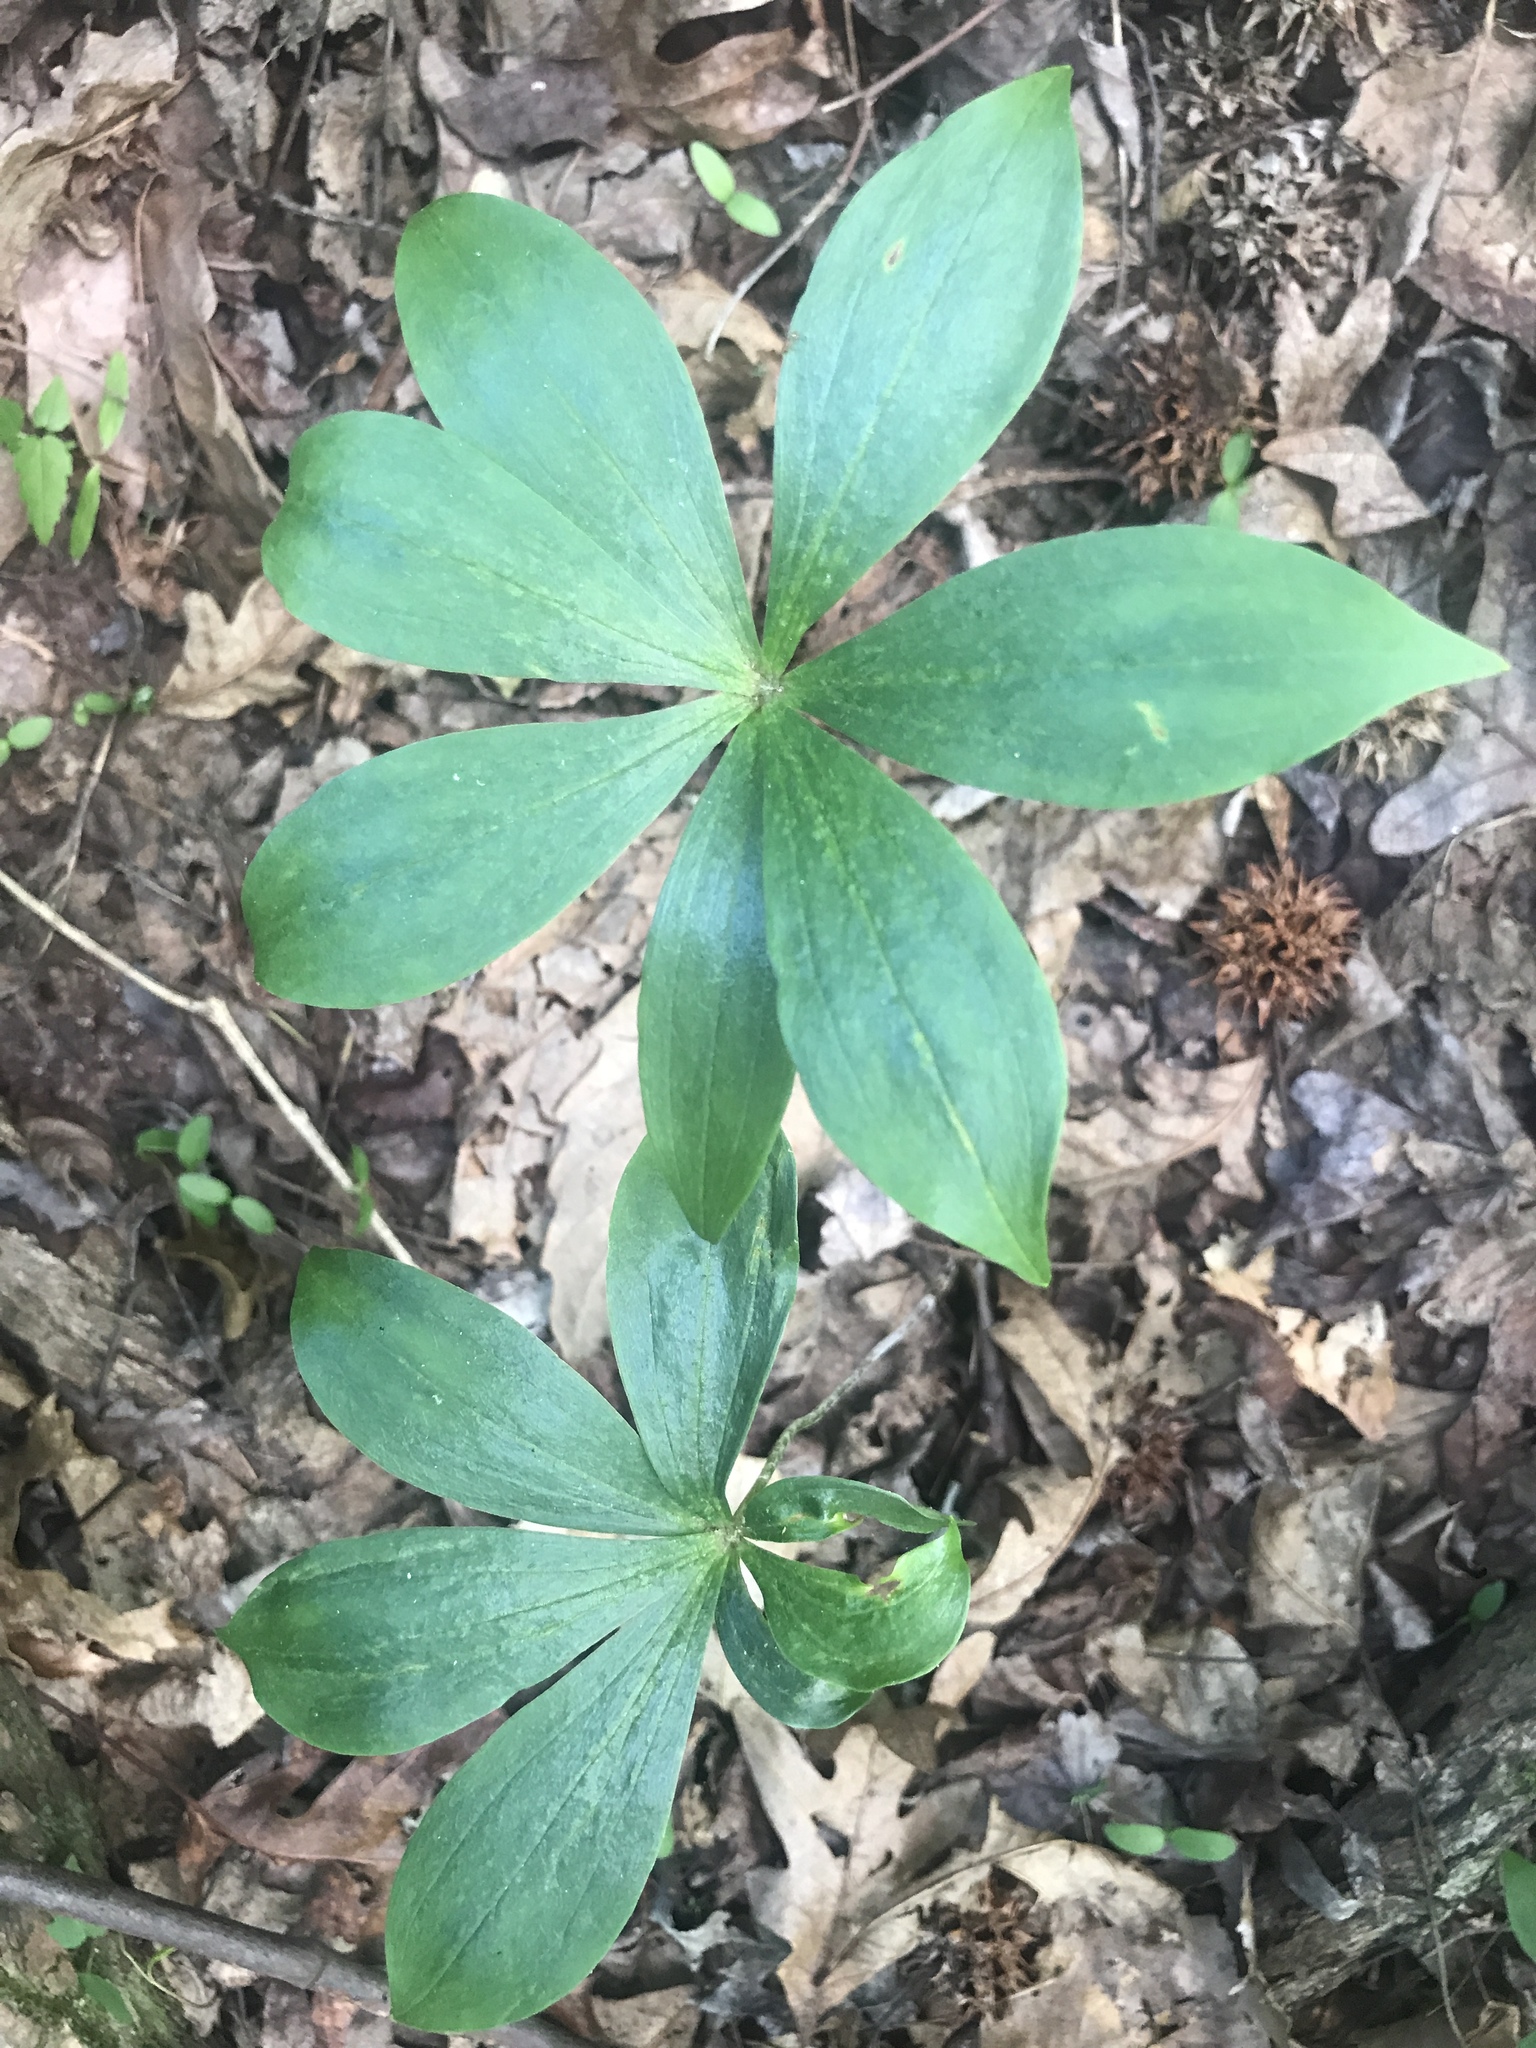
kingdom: Plantae
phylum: Tracheophyta
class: Liliopsida
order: Liliales
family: Liliaceae
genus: Medeola
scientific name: Medeola virginiana
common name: Indian cucumber-root
